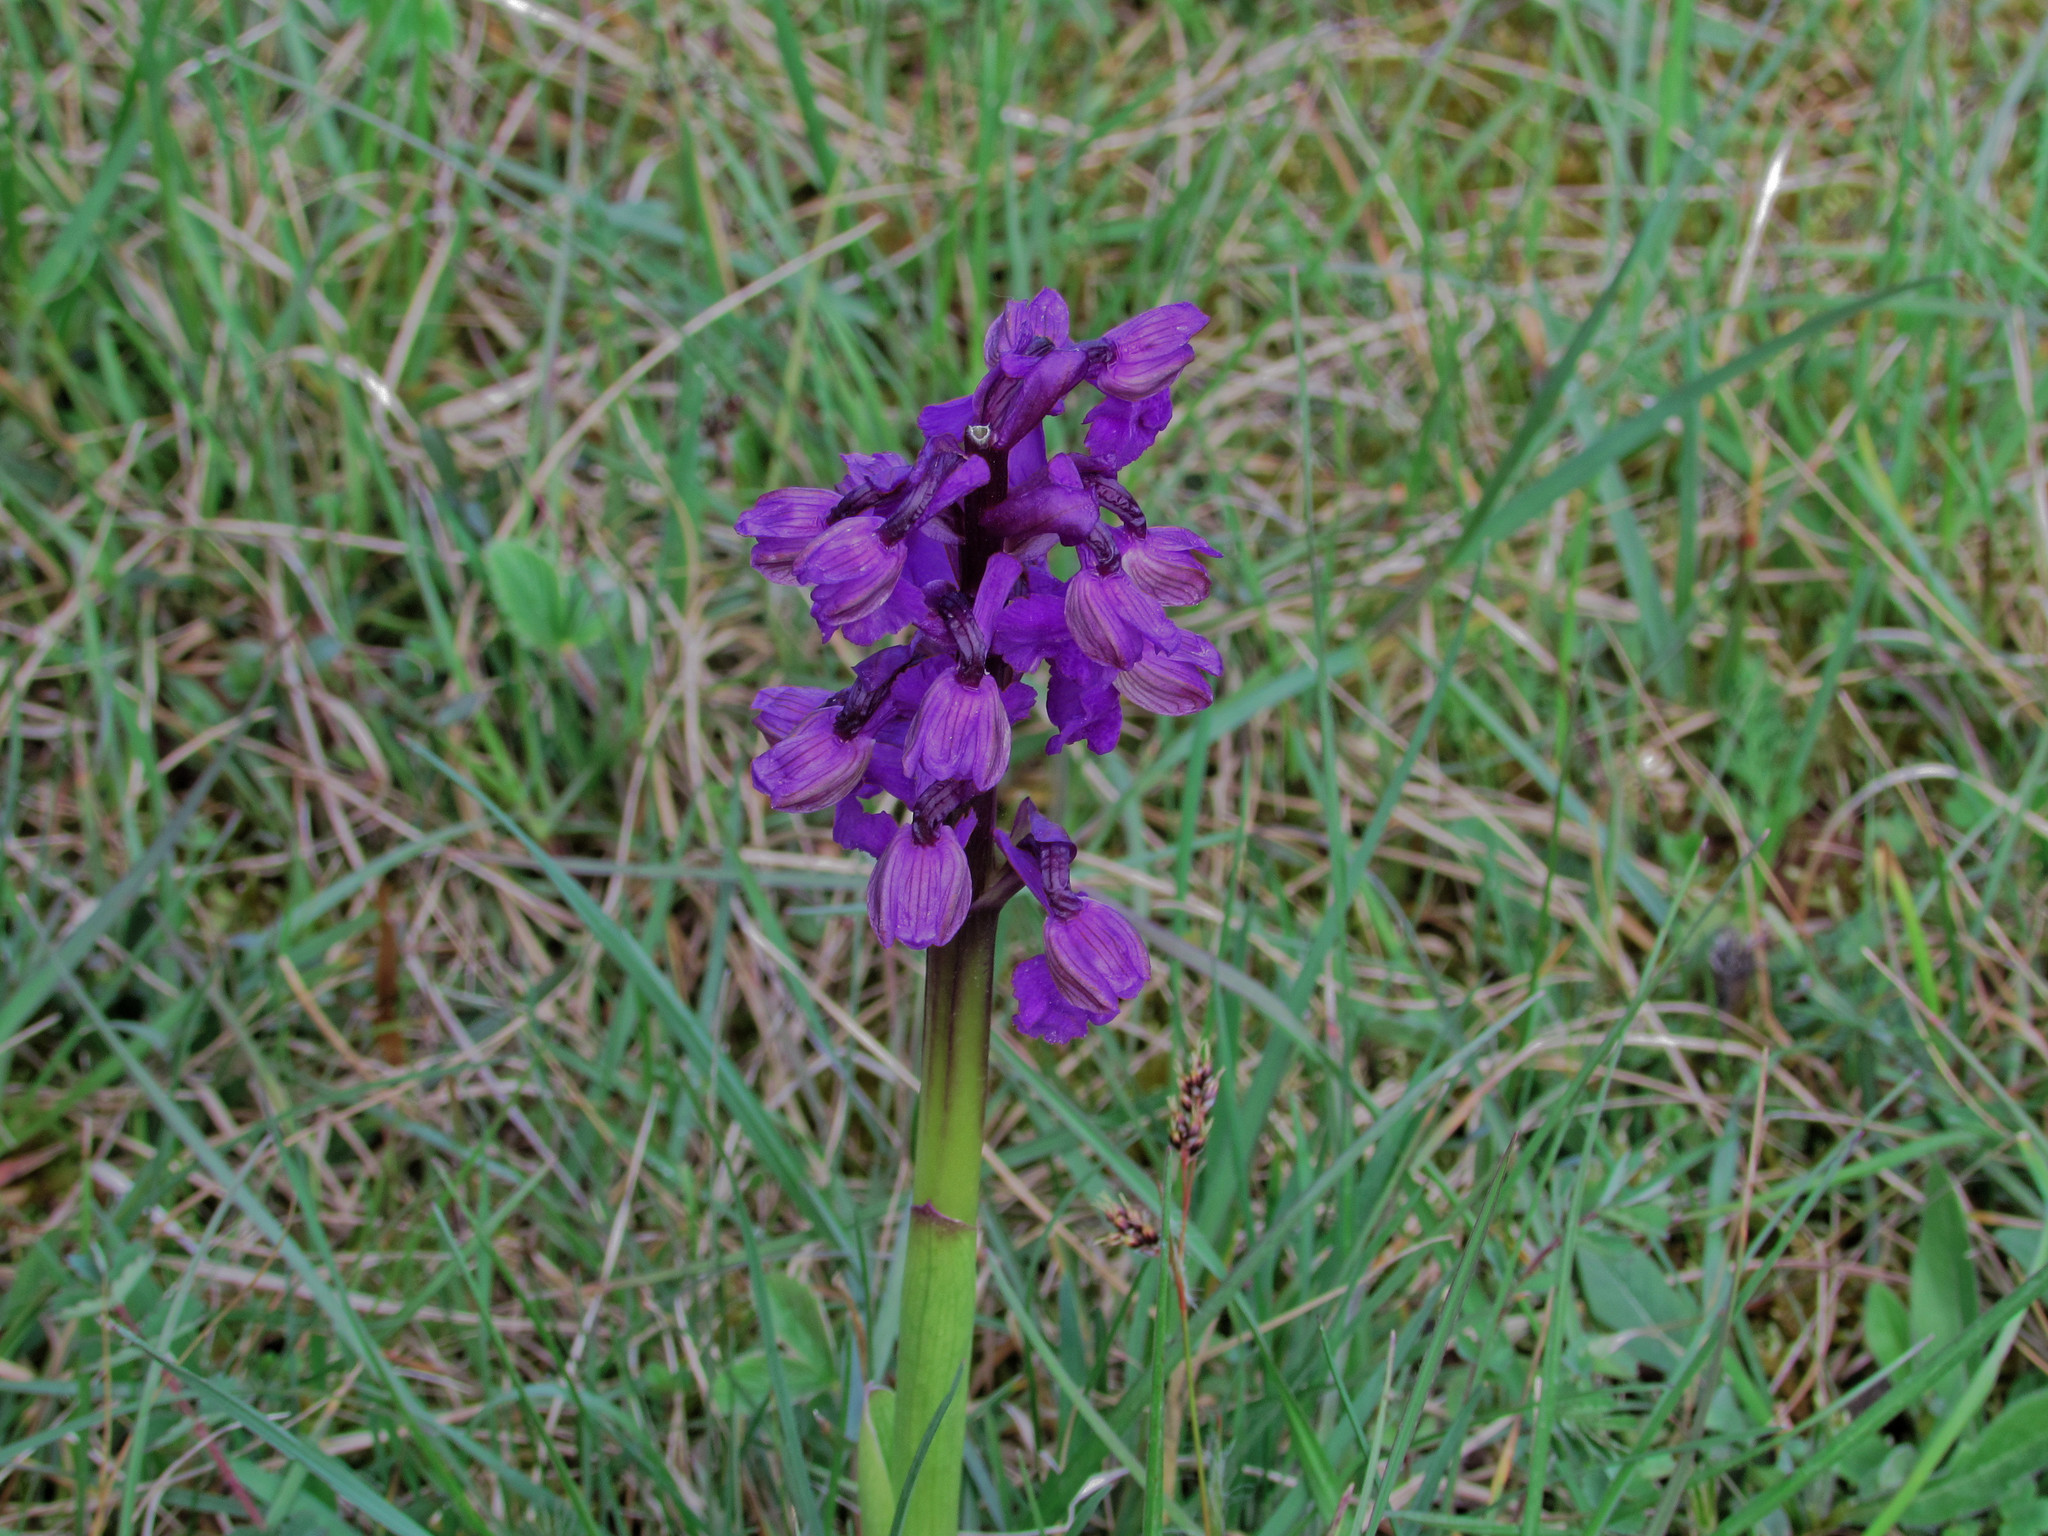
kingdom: Plantae
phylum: Tracheophyta
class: Liliopsida
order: Asparagales
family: Orchidaceae
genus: Anacamptis
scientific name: Anacamptis morio
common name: Green-winged orchid
